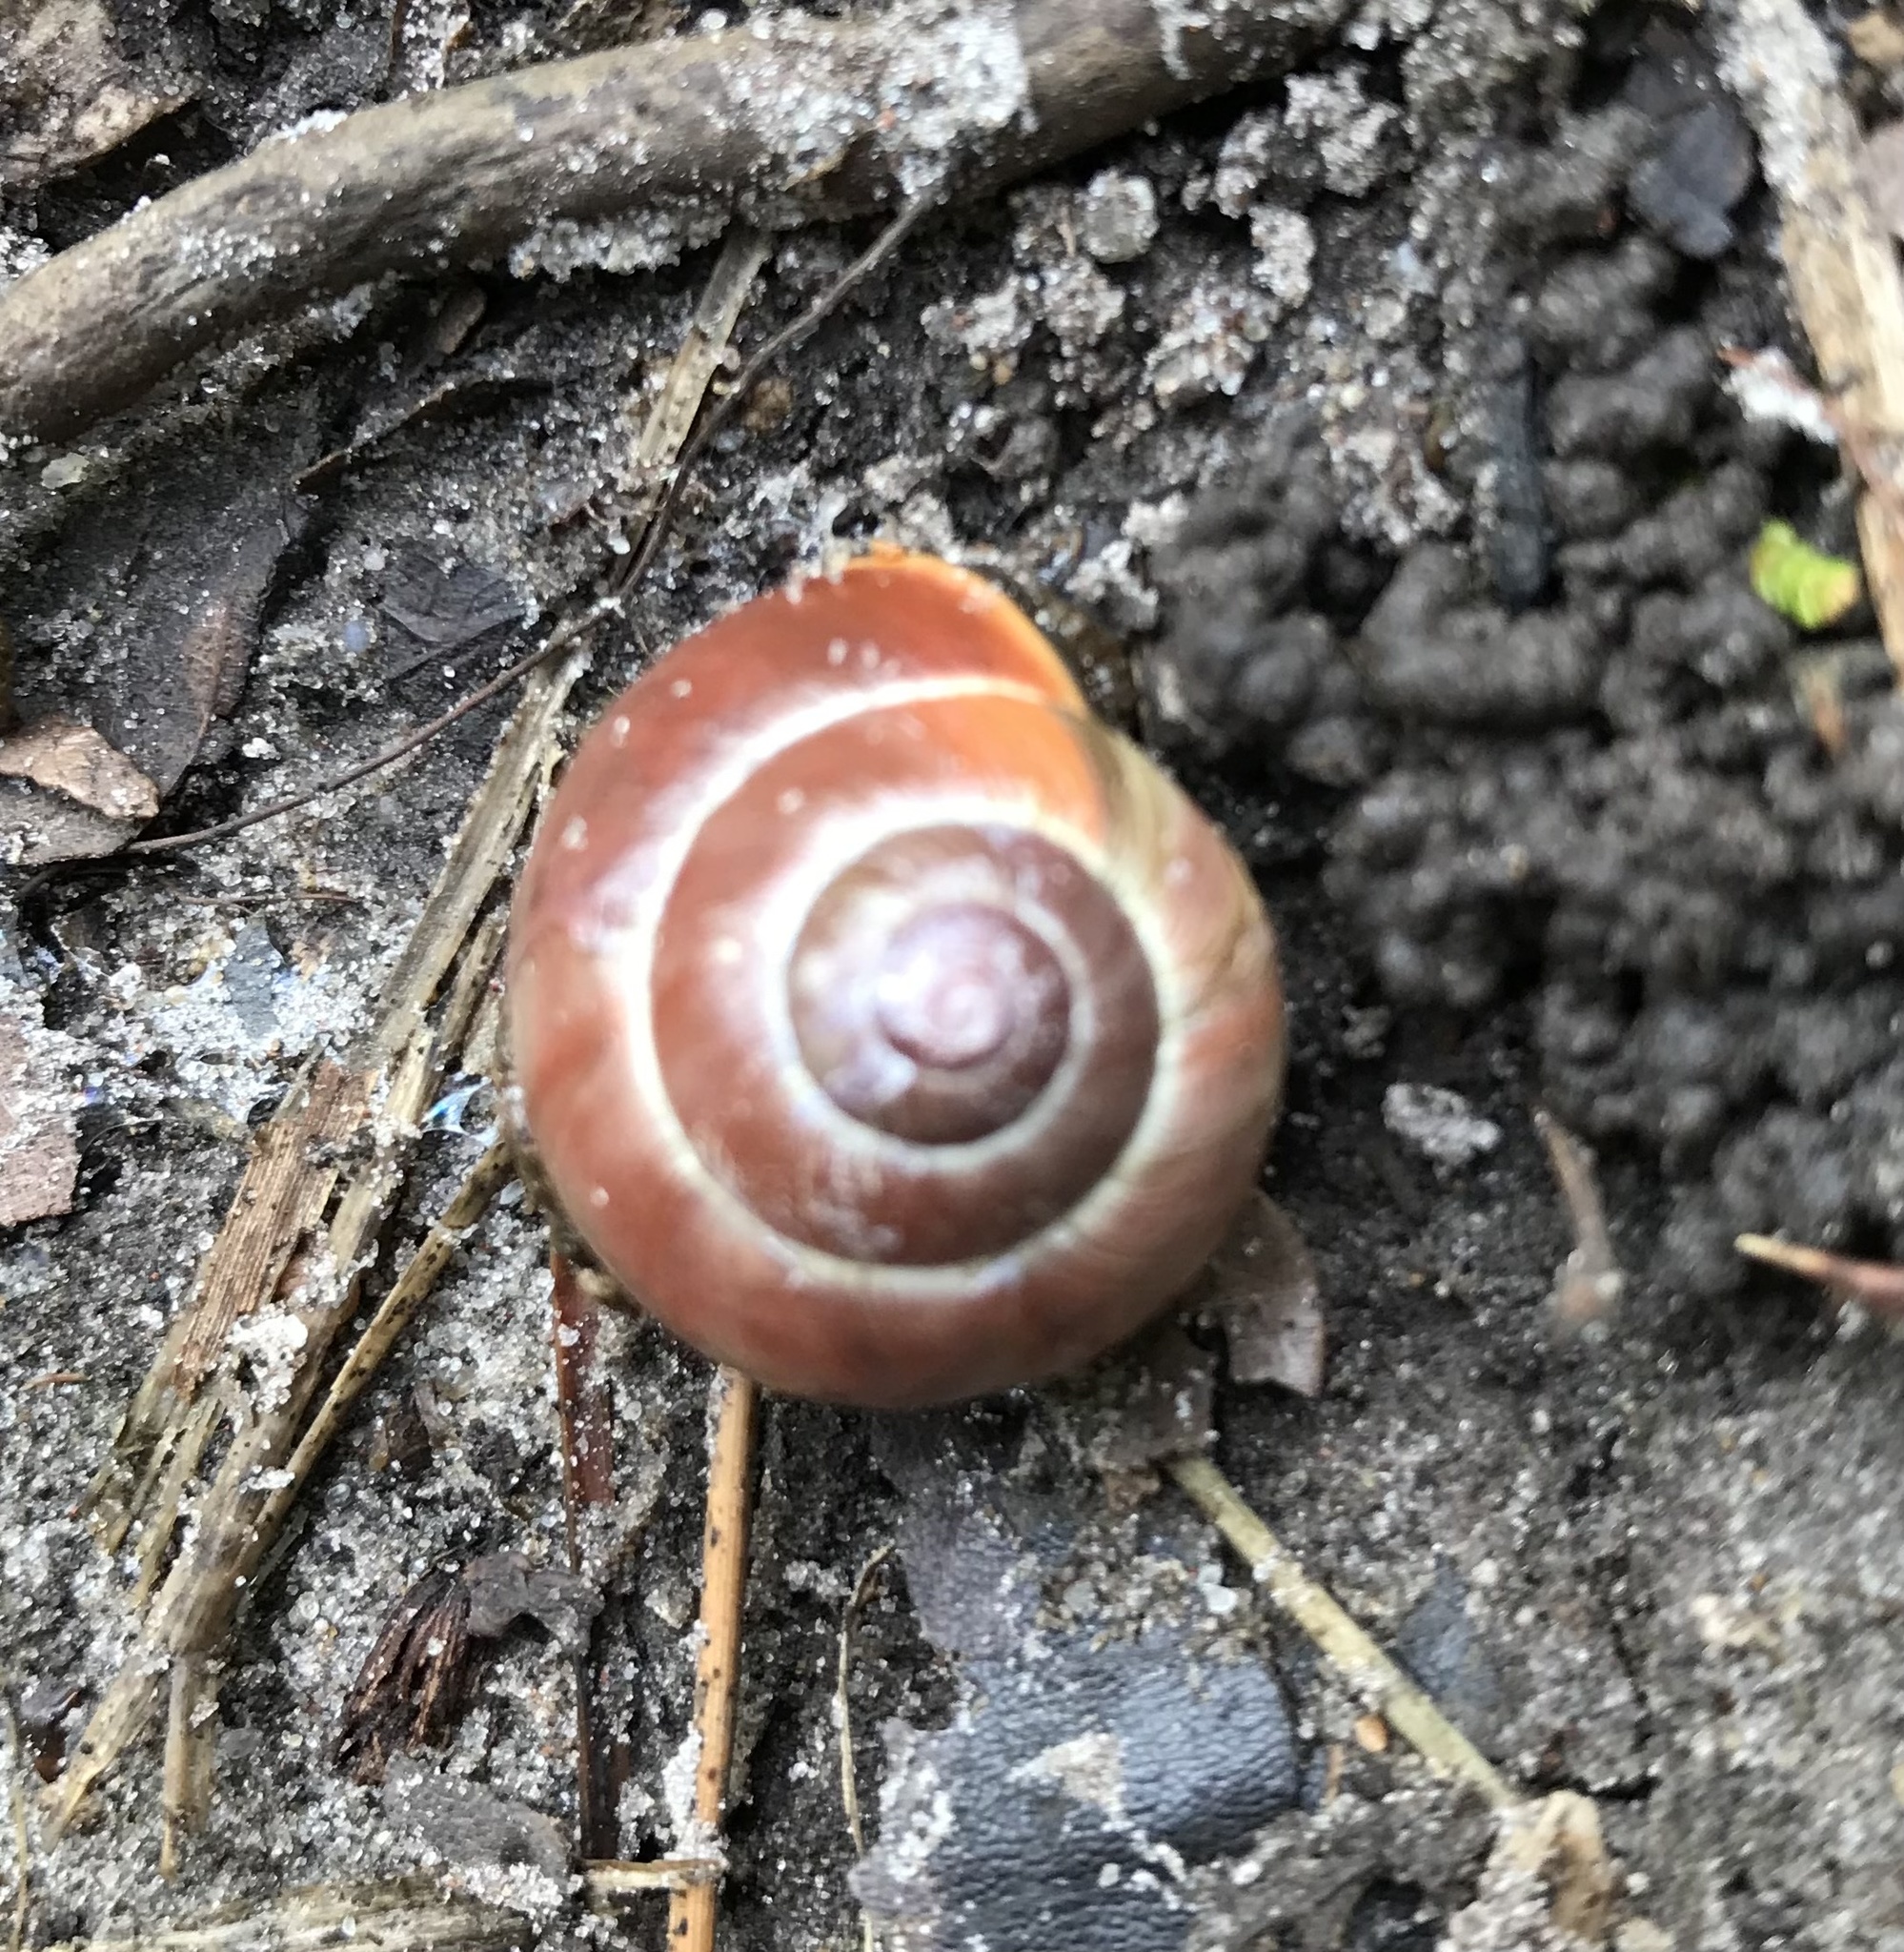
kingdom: Animalia
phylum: Mollusca
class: Gastropoda
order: Stylommatophora
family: Helicidae
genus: Cepaea
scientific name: Cepaea nemoralis
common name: Grovesnail
